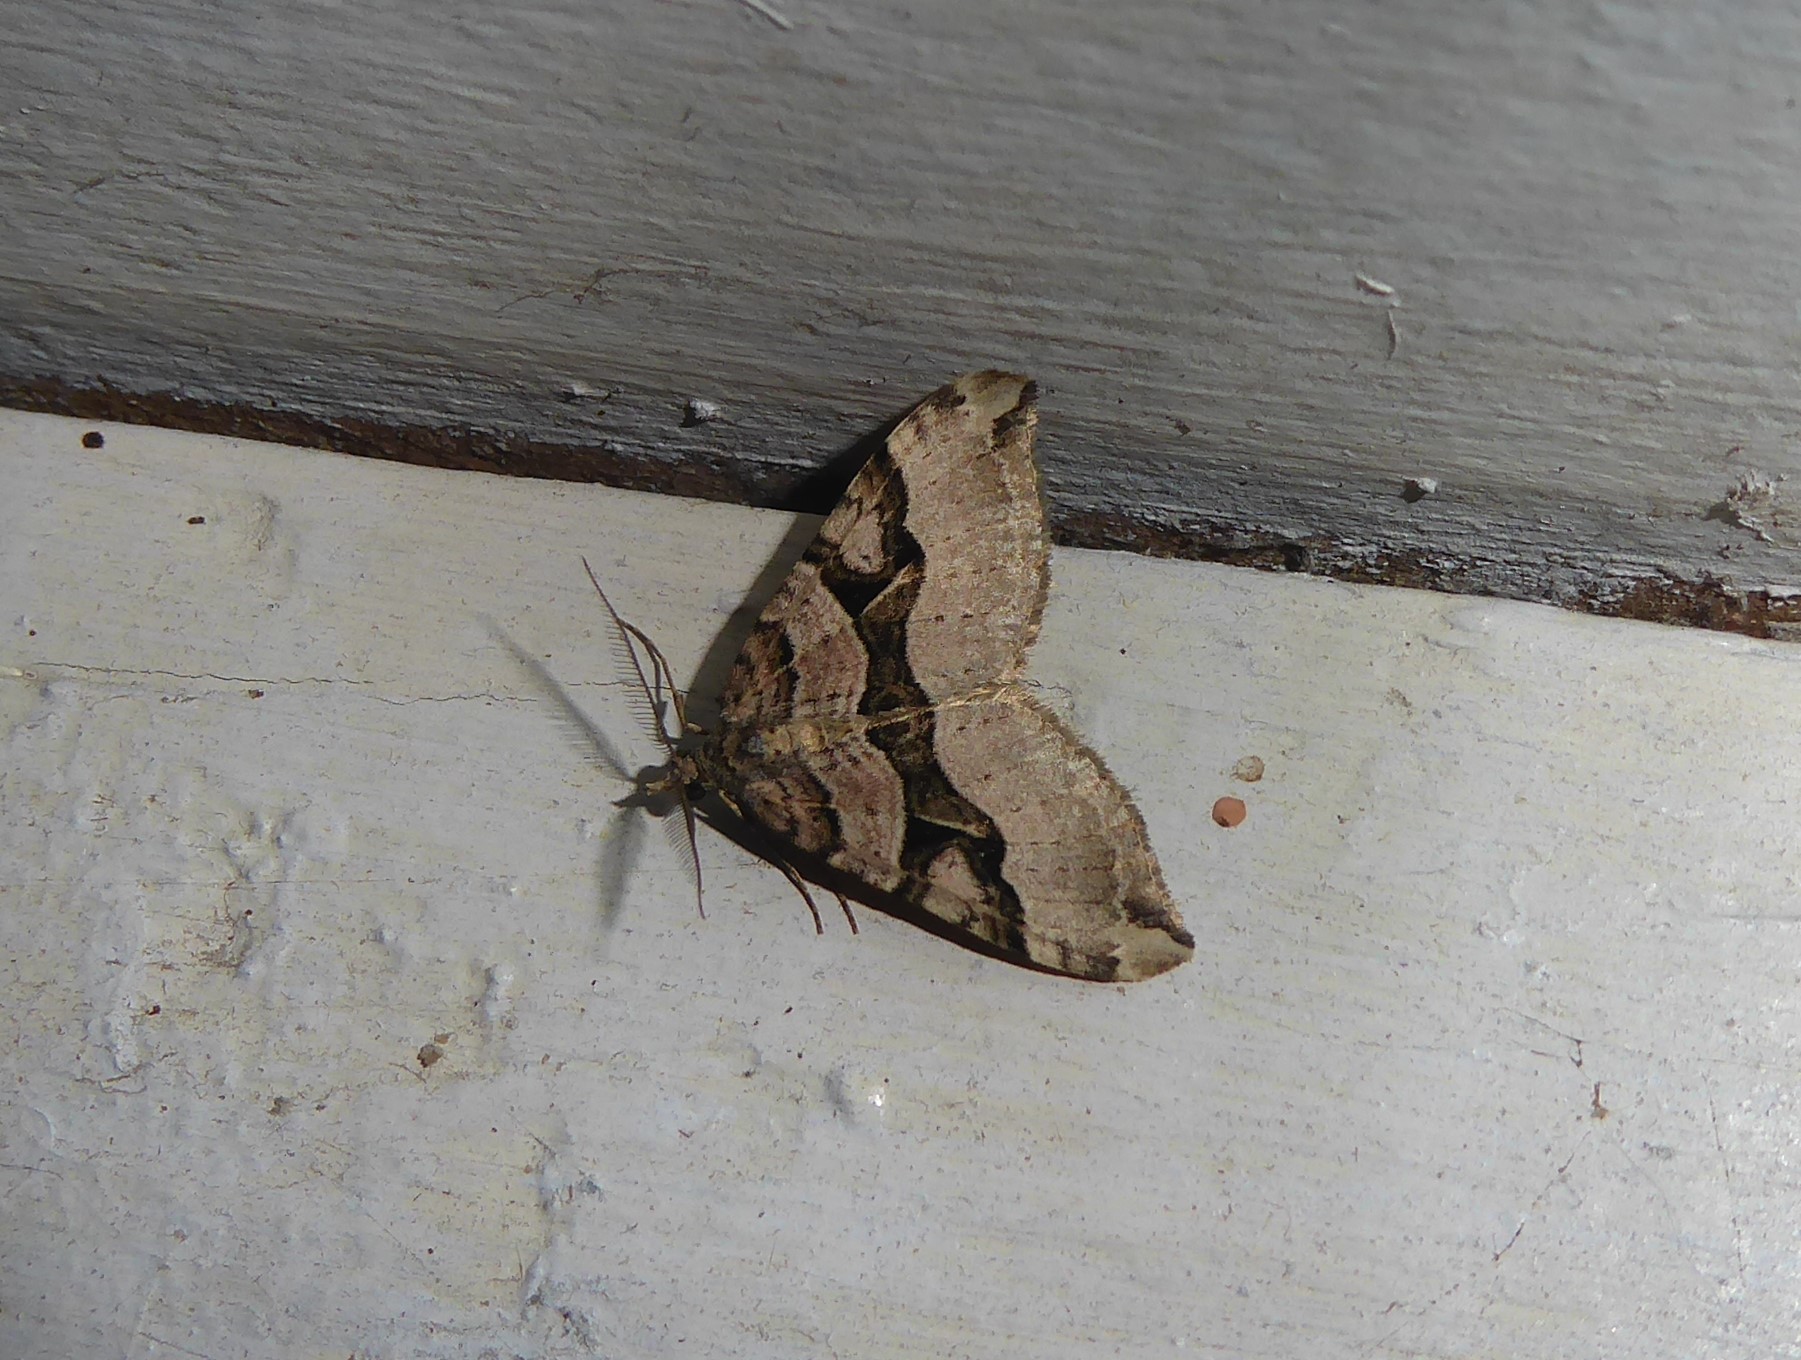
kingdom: Animalia
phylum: Arthropoda
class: Insecta
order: Lepidoptera
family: Geometridae
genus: Xanthorhoe
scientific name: Xanthorhoe semifissata
